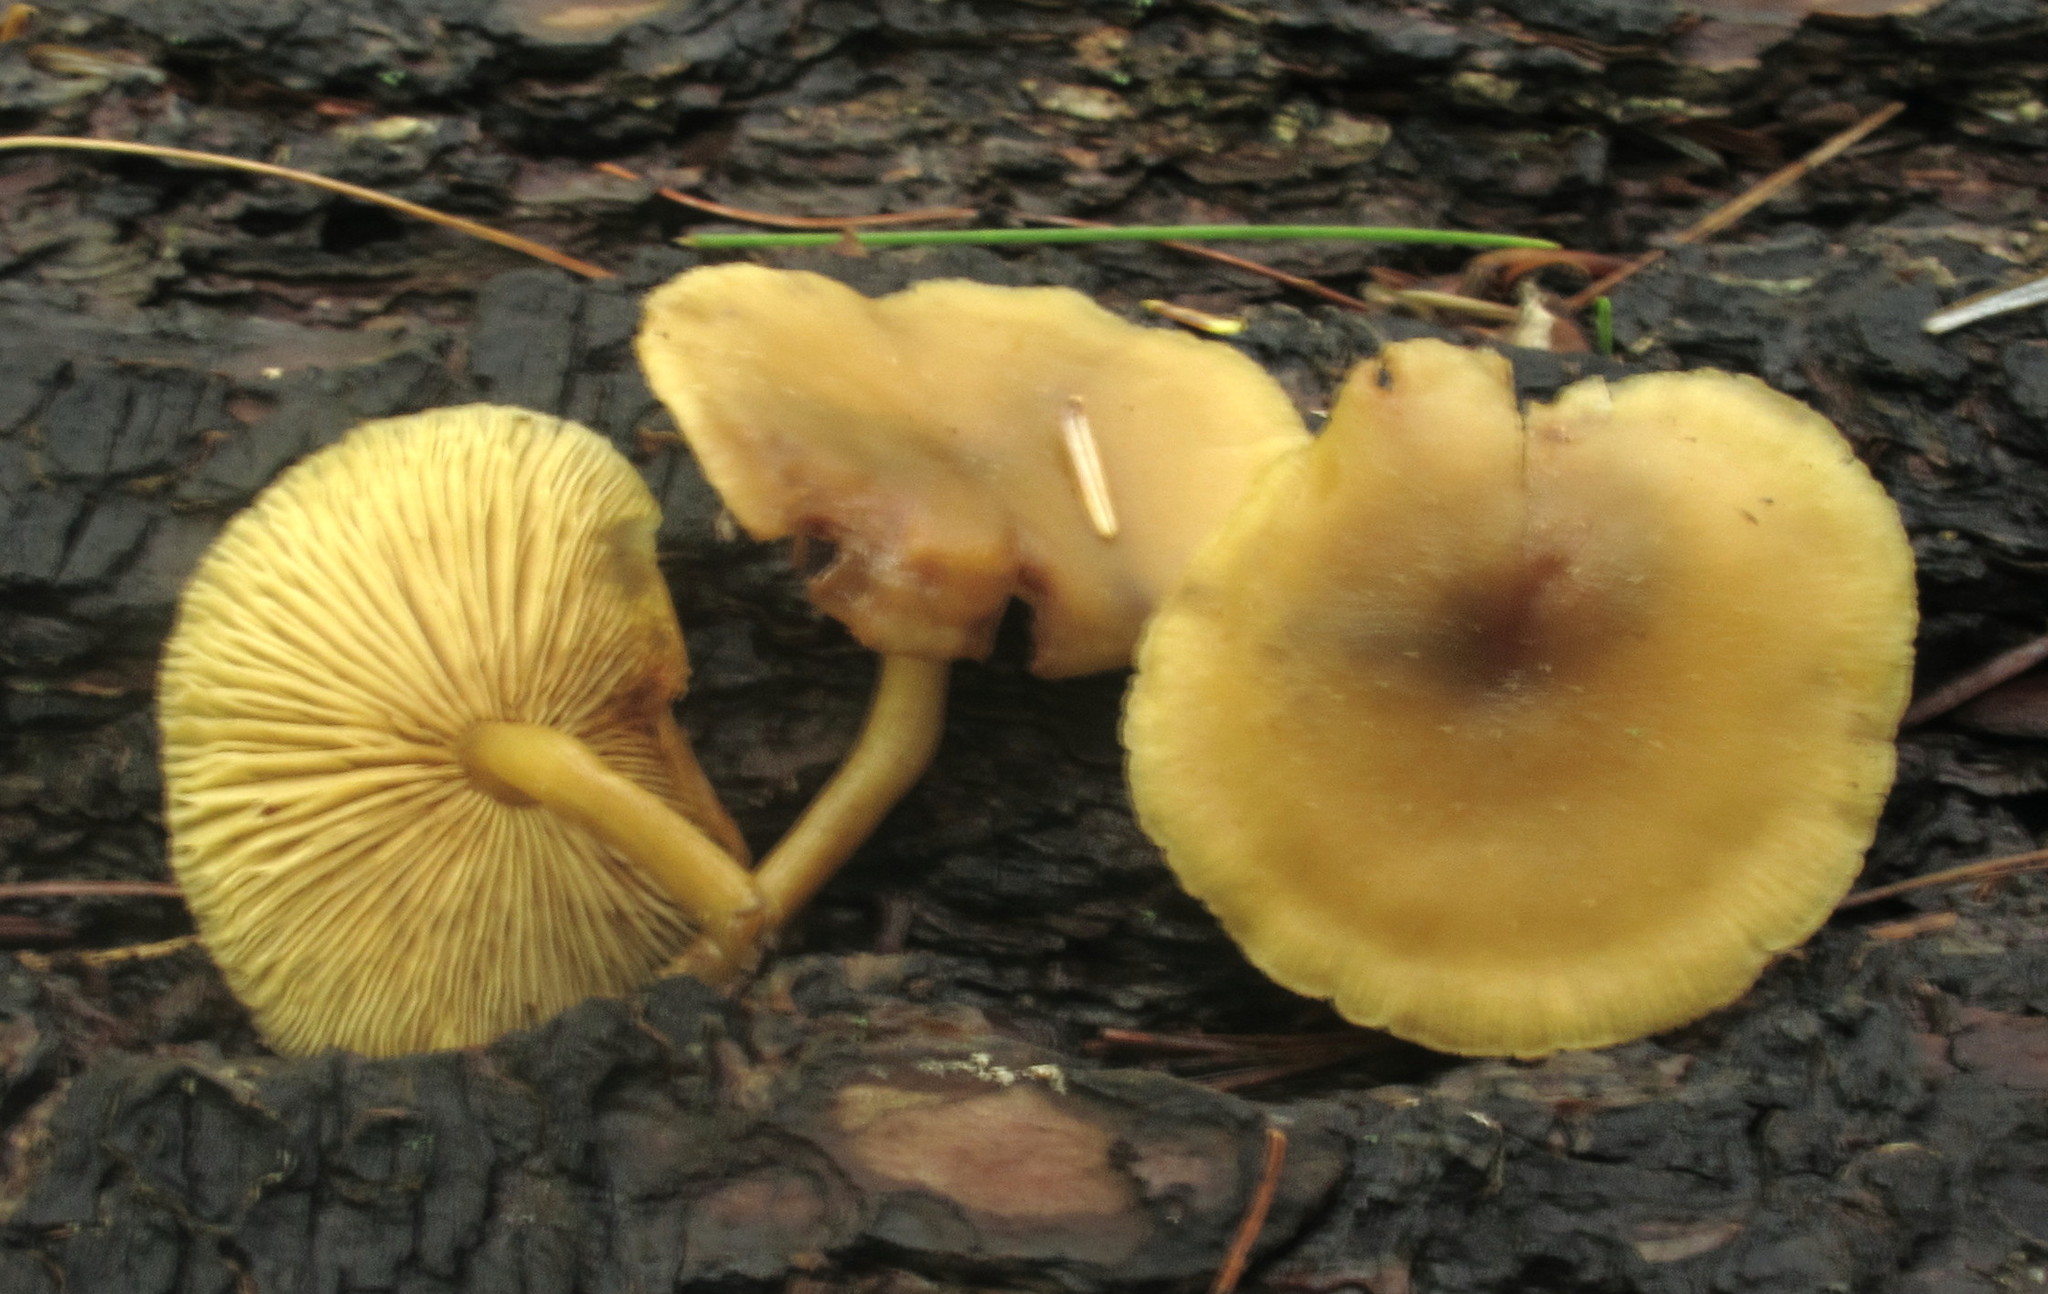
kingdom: Fungi
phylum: Basidiomycota
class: Agaricomycetes
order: Agaricales
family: Callistosporiaceae
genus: Callistosporium
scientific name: Callistosporium luteo-olivaceum
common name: Olive lute
